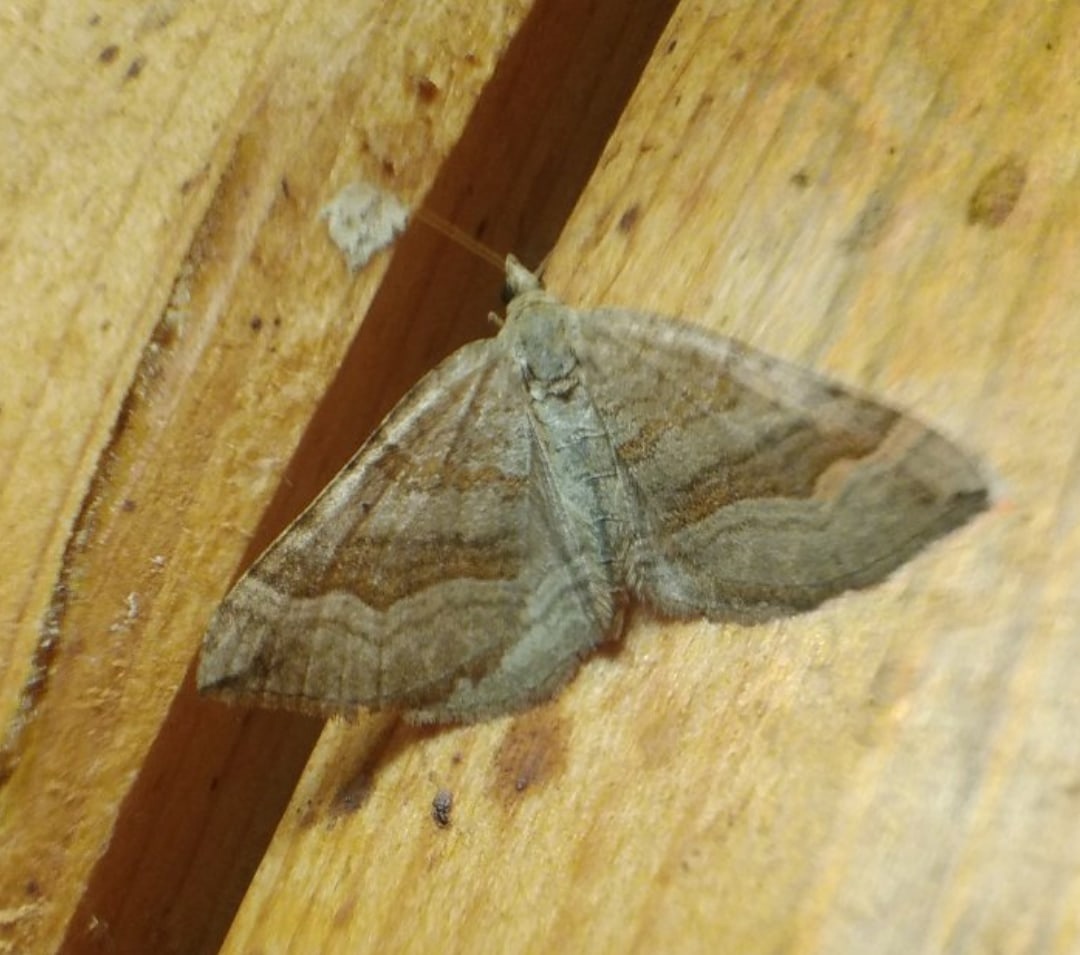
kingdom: Animalia
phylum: Arthropoda
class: Insecta
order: Lepidoptera
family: Geometridae
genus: Scotopteryx
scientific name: Scotopteryx chenopodiata
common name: Shaded broad-bar
